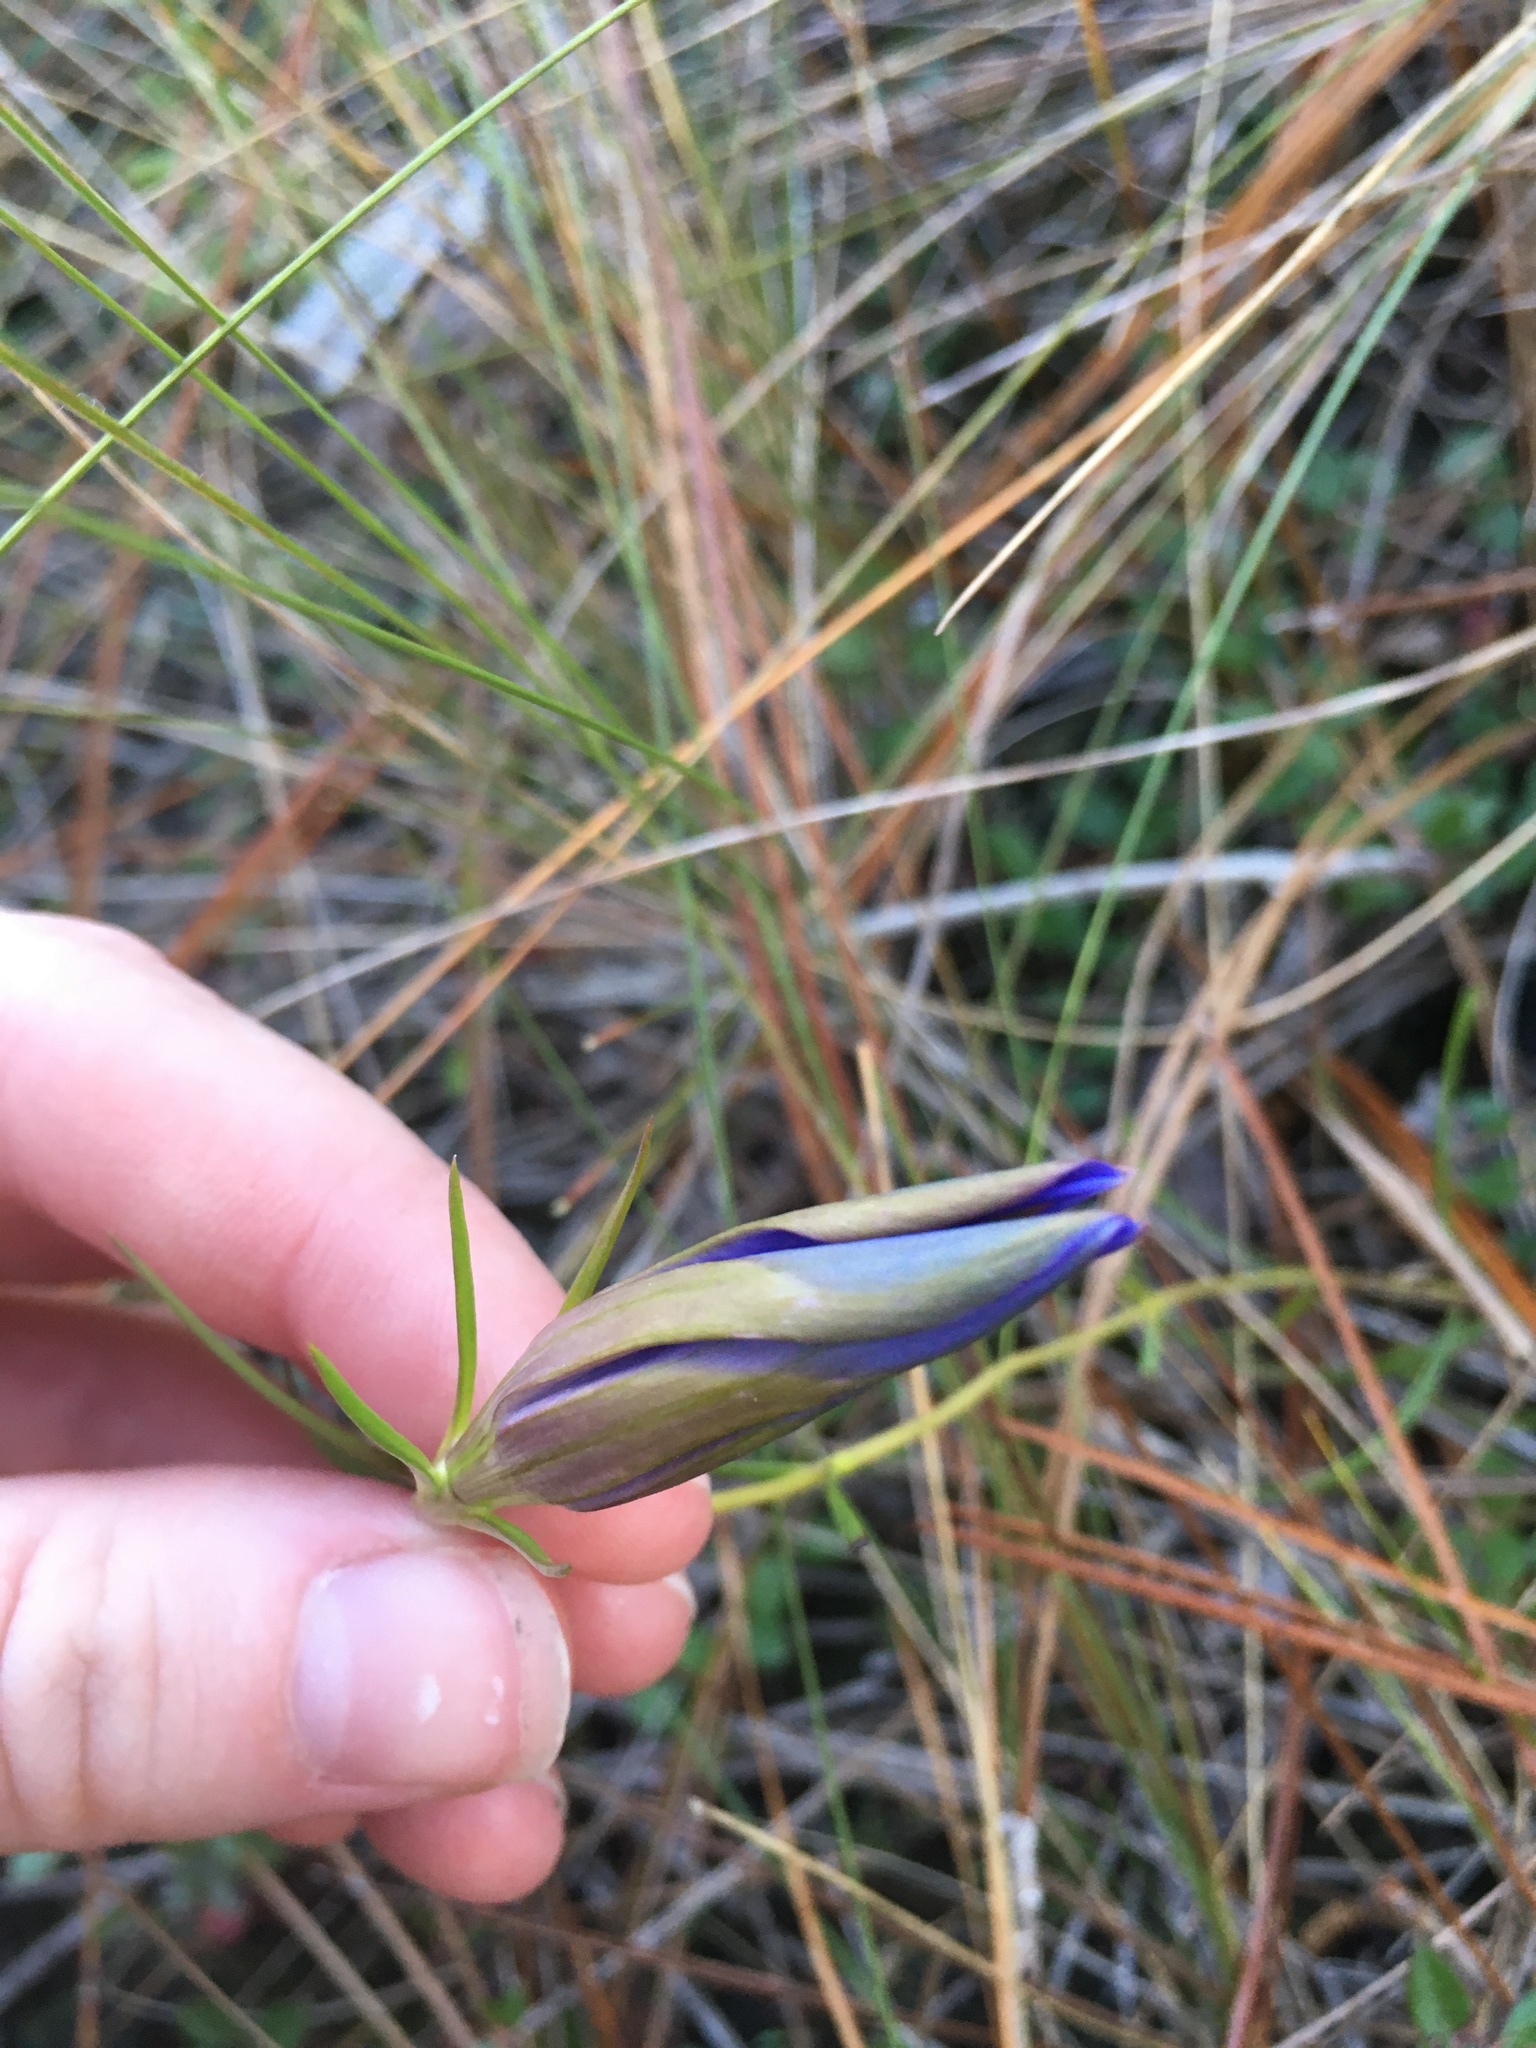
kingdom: Plantae
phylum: Tracheophyta
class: Magnoliopsida
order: Gentianales
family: Gentianaceae
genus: Gentiana
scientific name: Gentiana autumnalis
